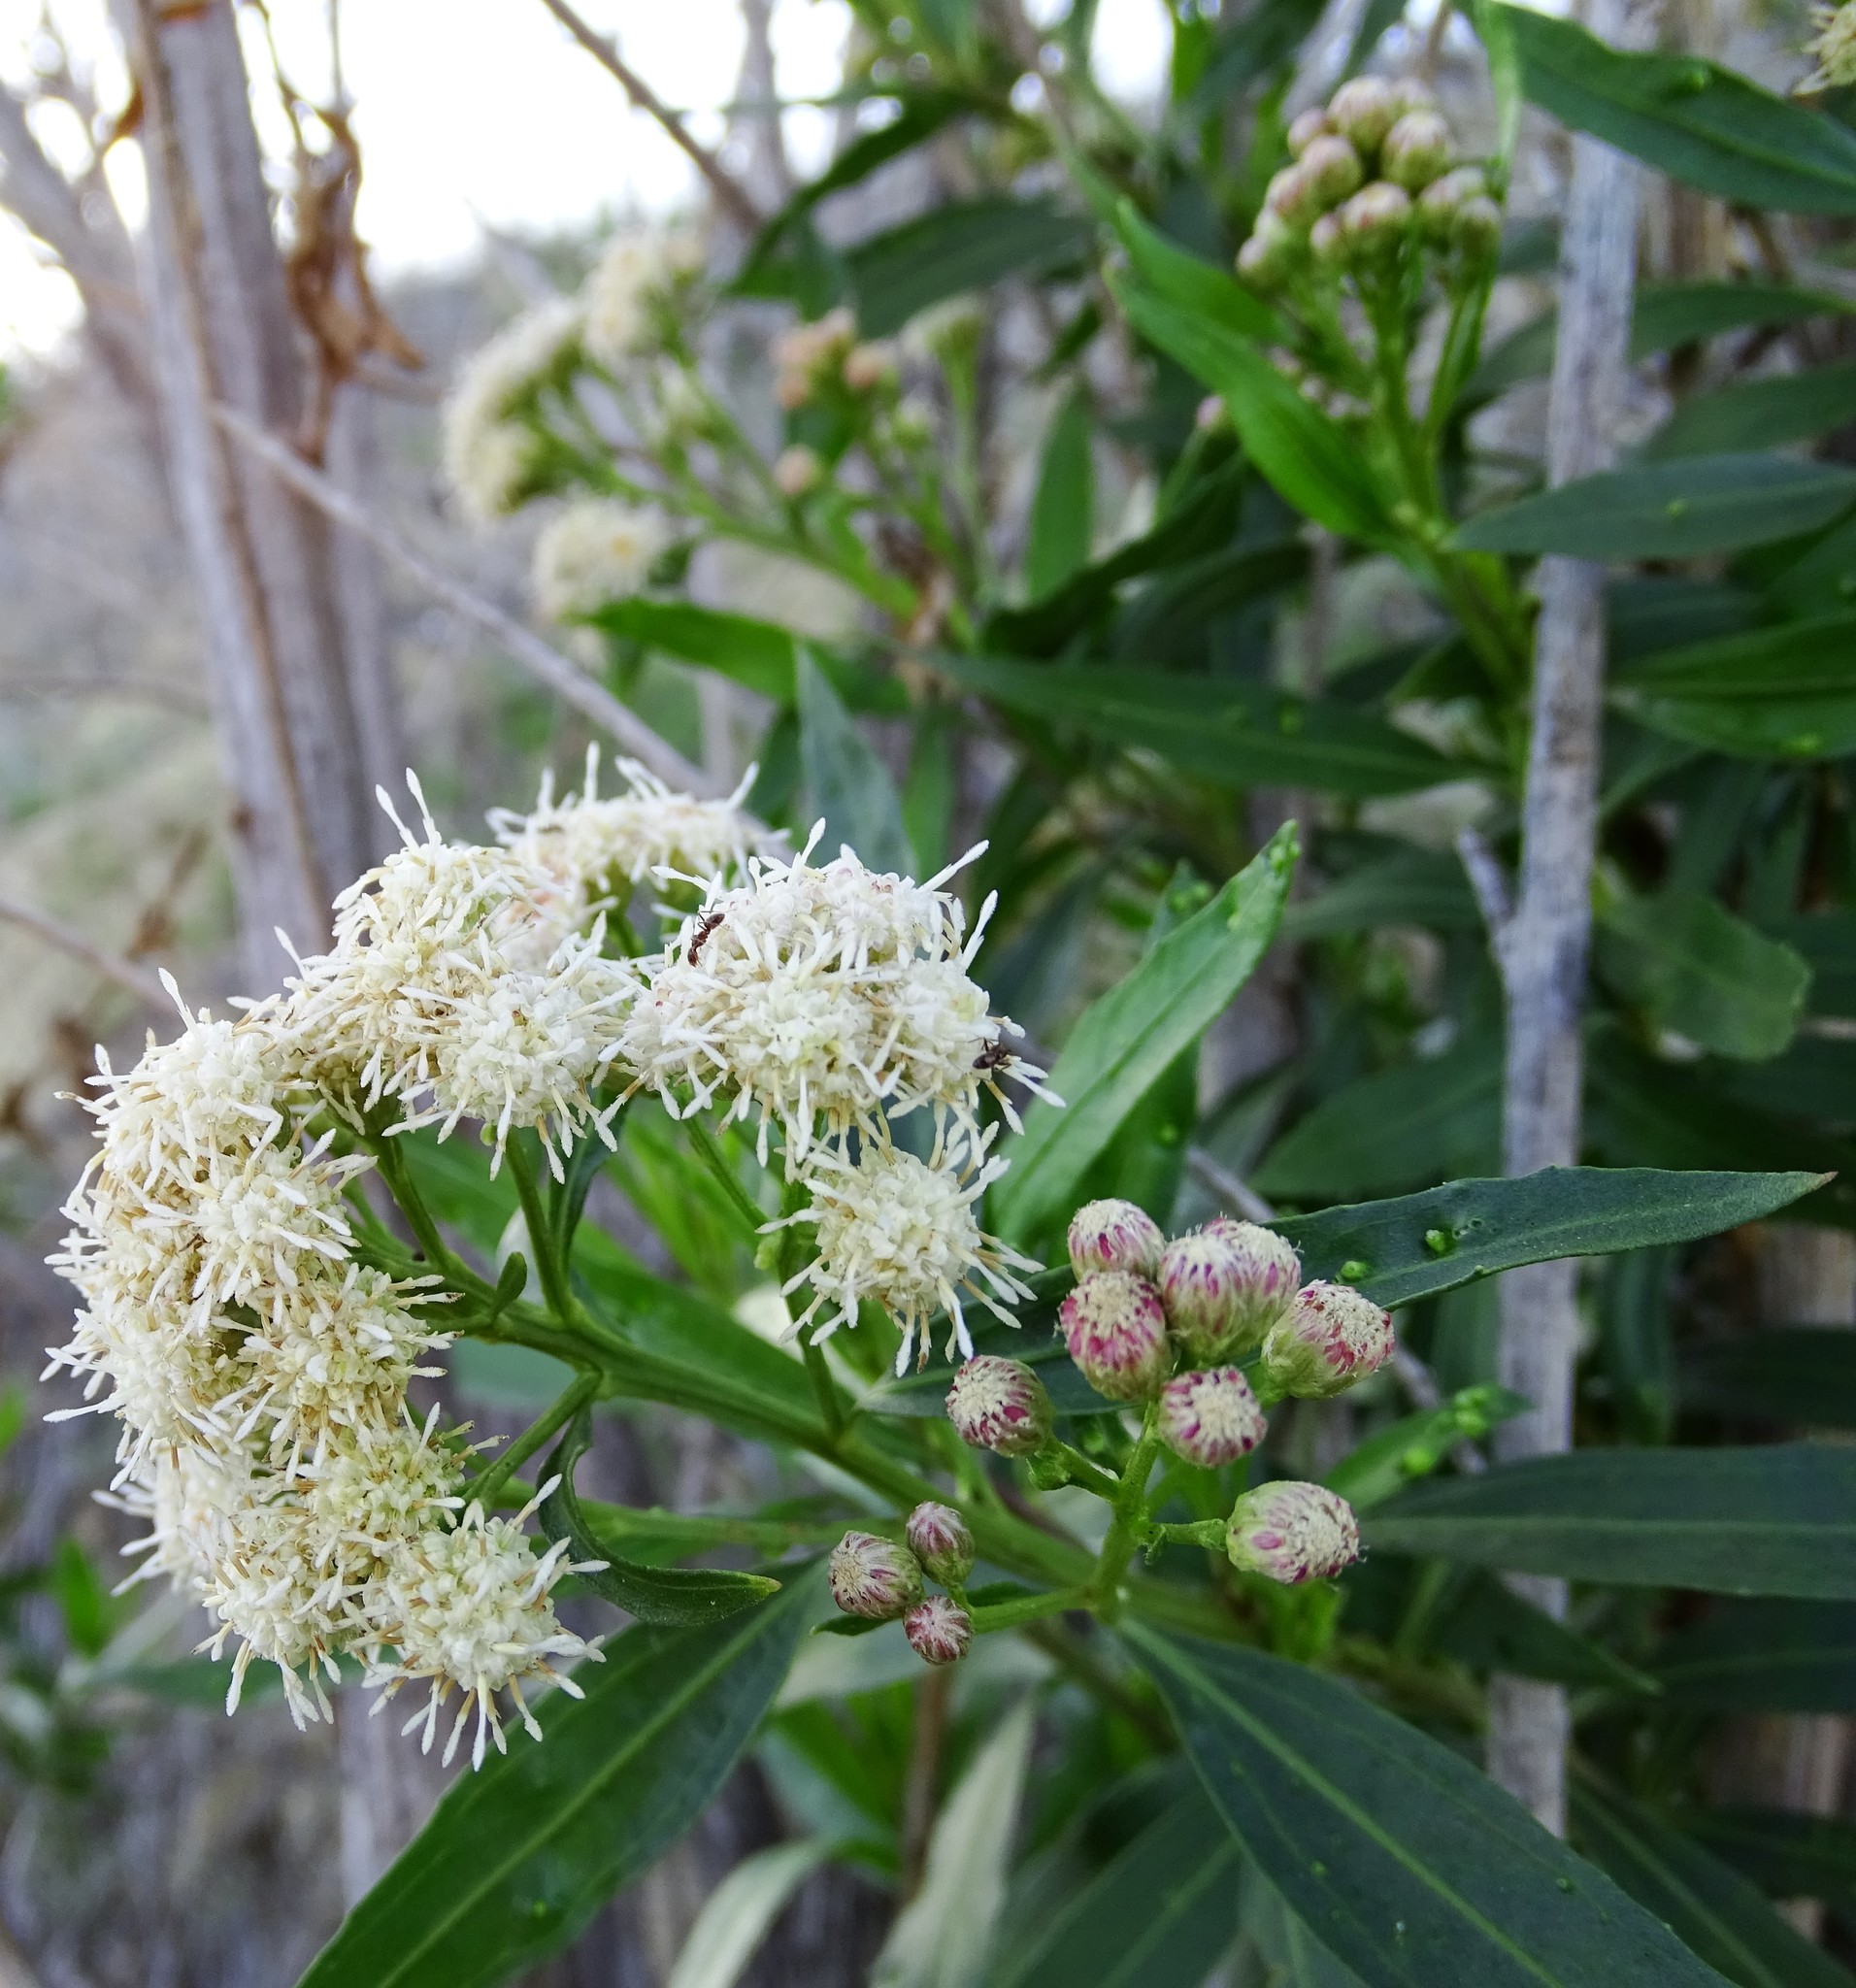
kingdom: Plantae
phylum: Tracheophyta
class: Magnoliopsida
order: Asterales
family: Asteraceae
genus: Baccharis
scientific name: Baccharis salicifolia
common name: Sticky baccharis
